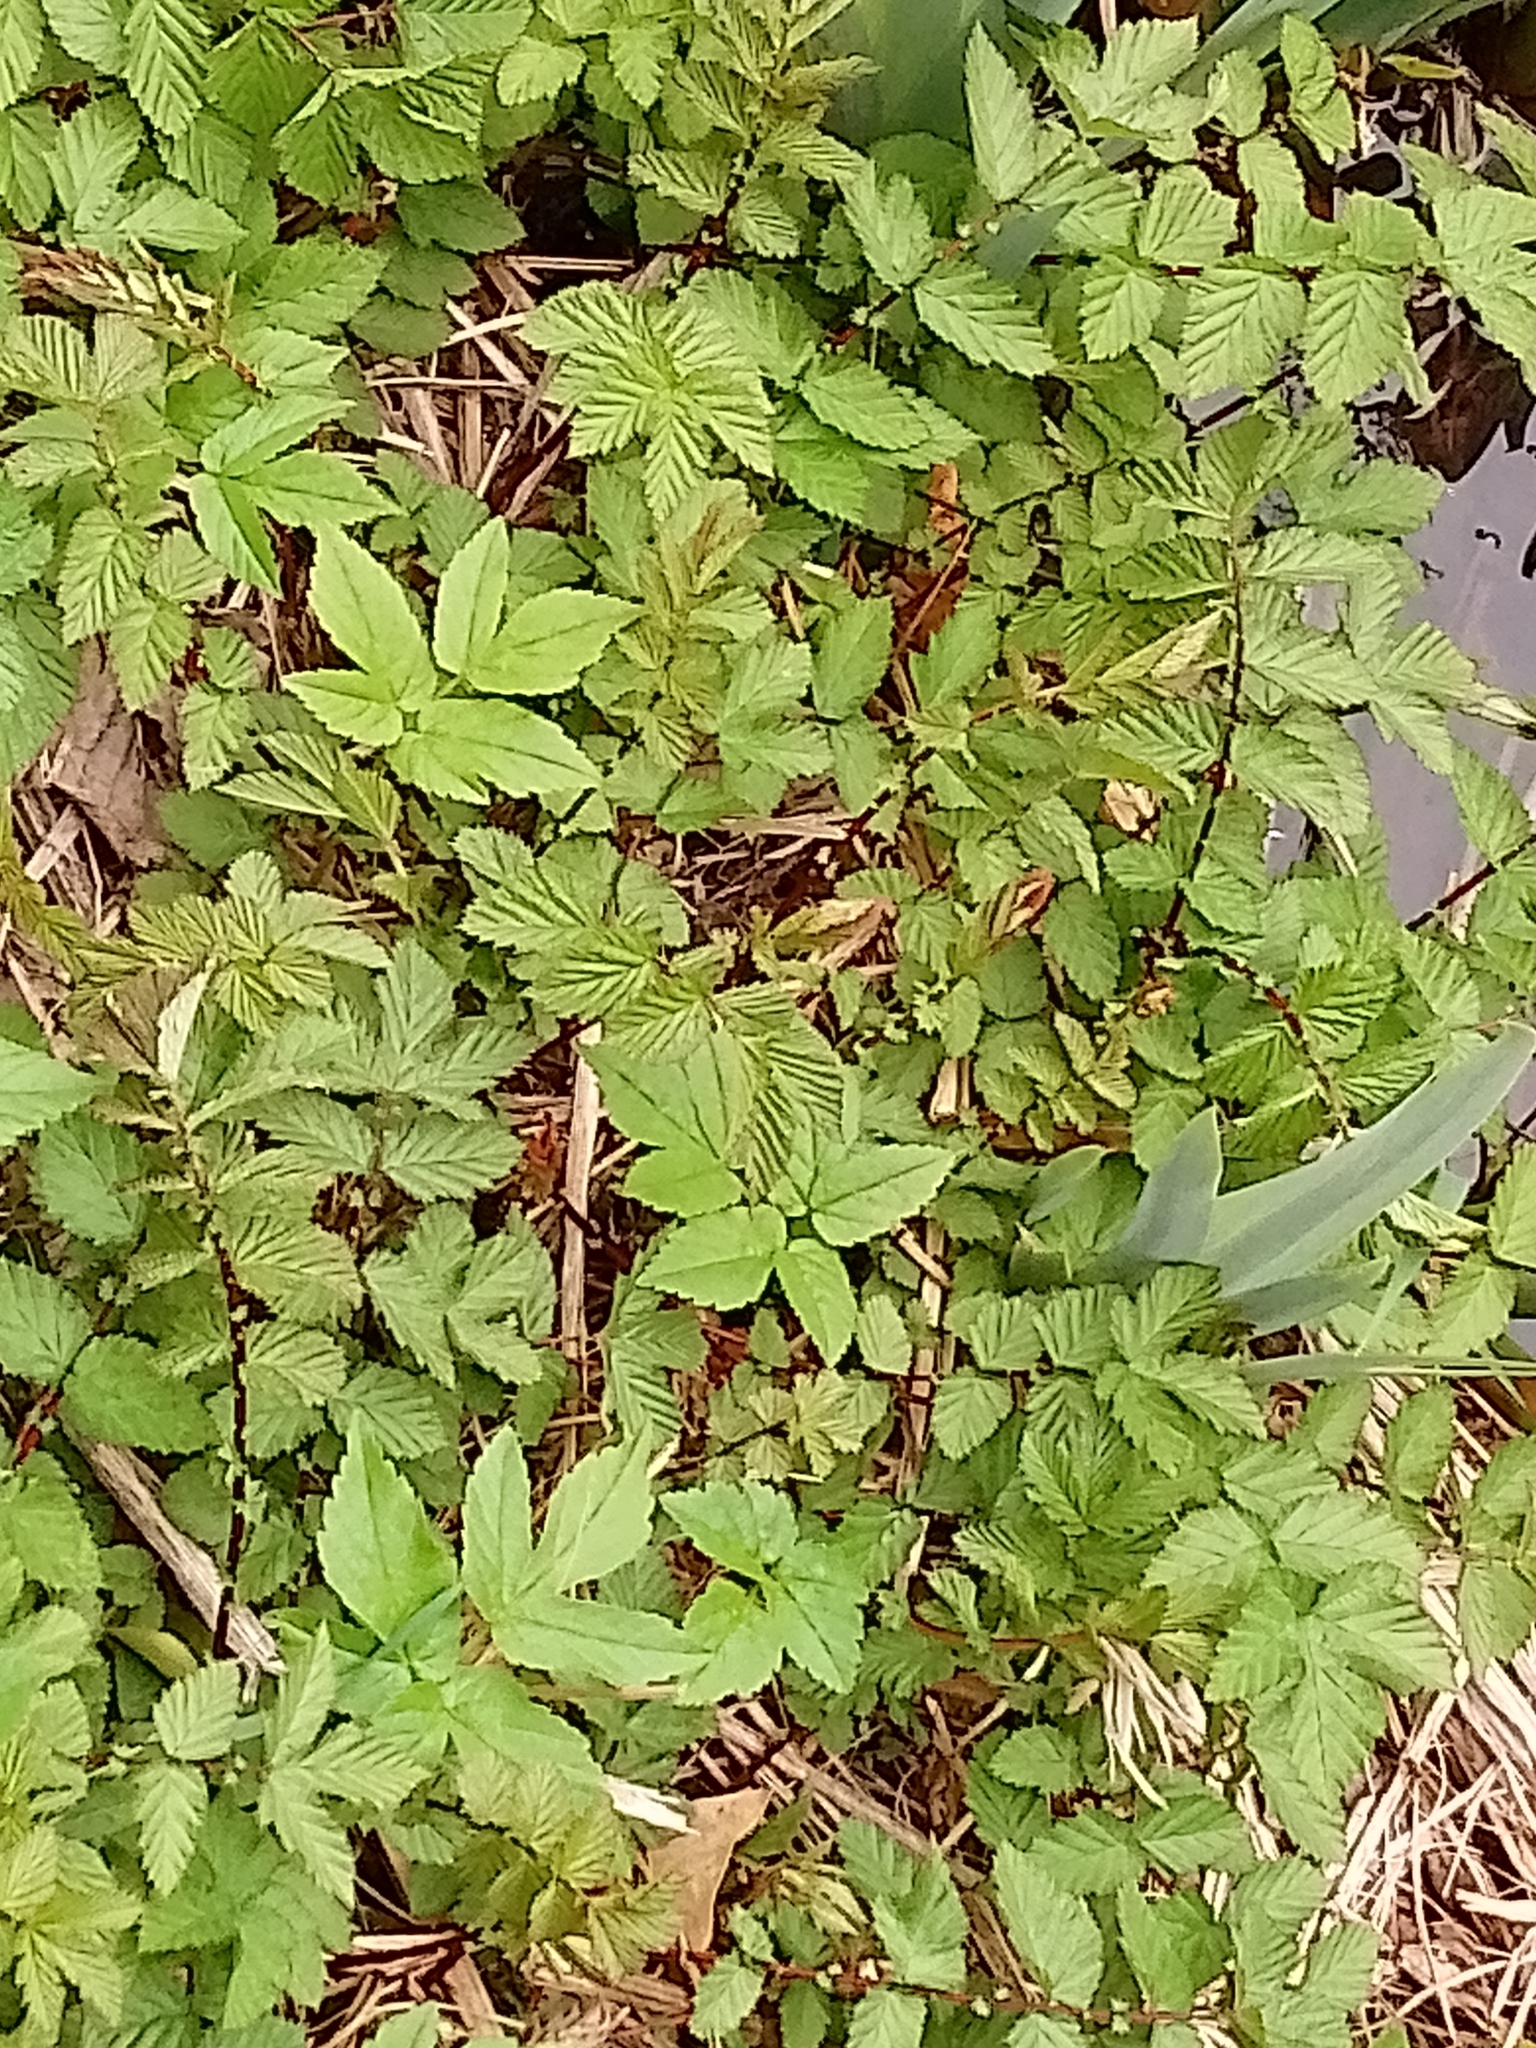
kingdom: Plantae
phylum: Tracheophyta
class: Magnoliopsida
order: Rosales
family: Rosaceae
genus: Filipendula
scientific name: Filipendula ulmaria
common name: Meadowsweet
